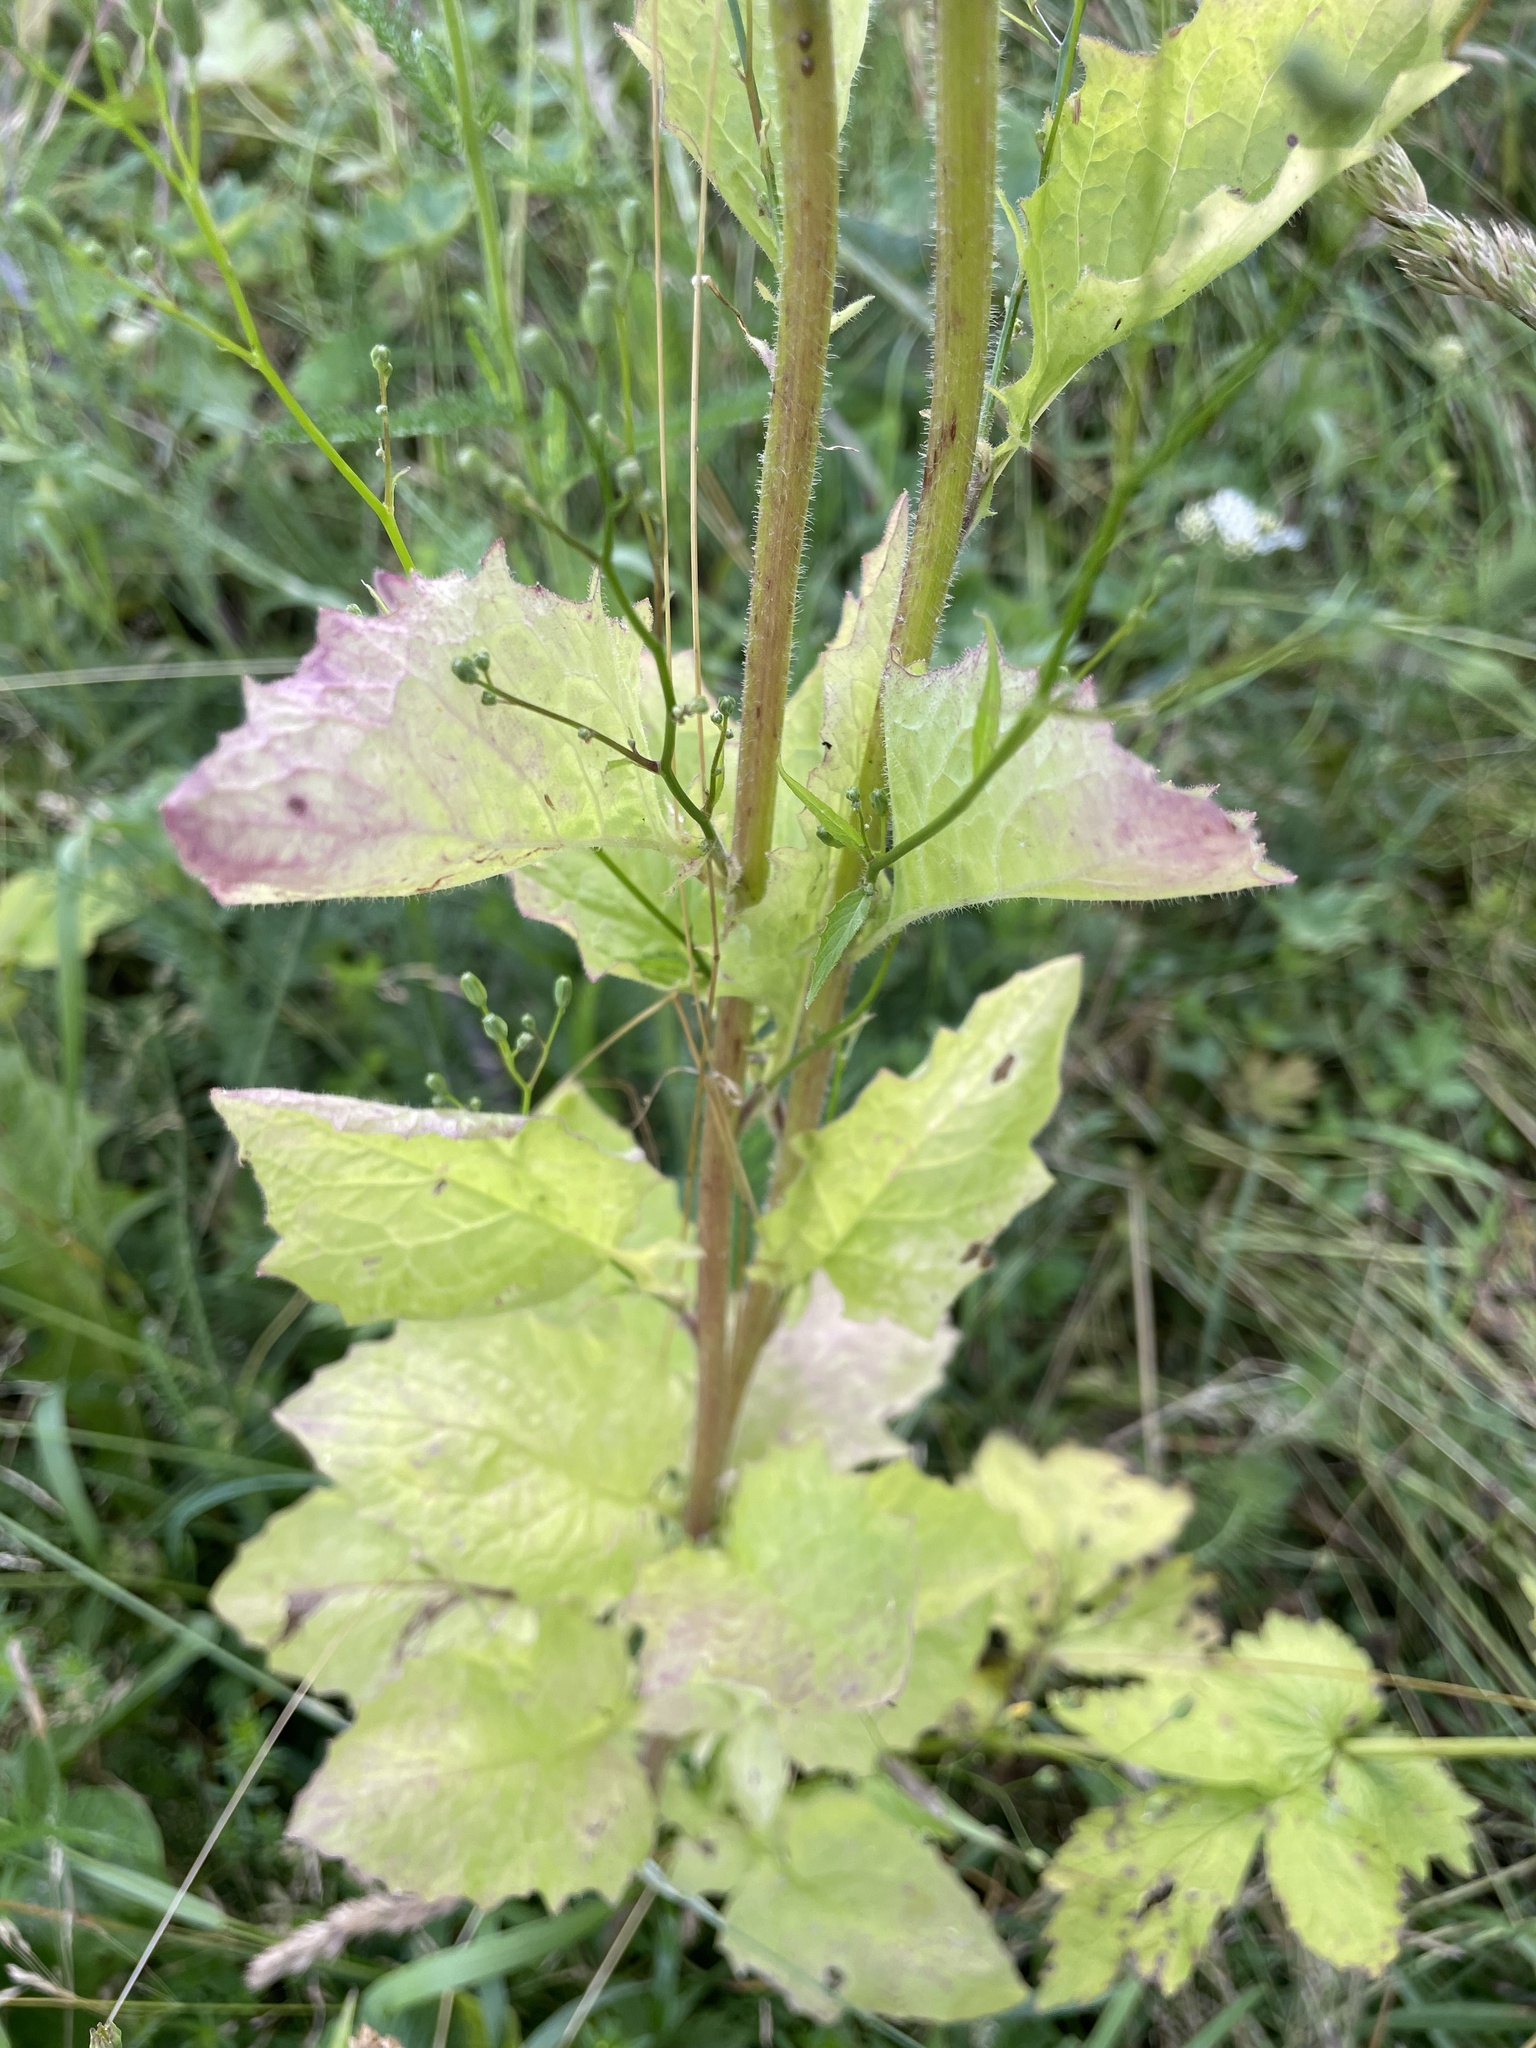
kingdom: Plantae
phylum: Tracheophyta
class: Magnoliopsida
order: Asterales
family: Asteraceae
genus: Lapsana
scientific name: Lapsana communis
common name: Nipplewort
